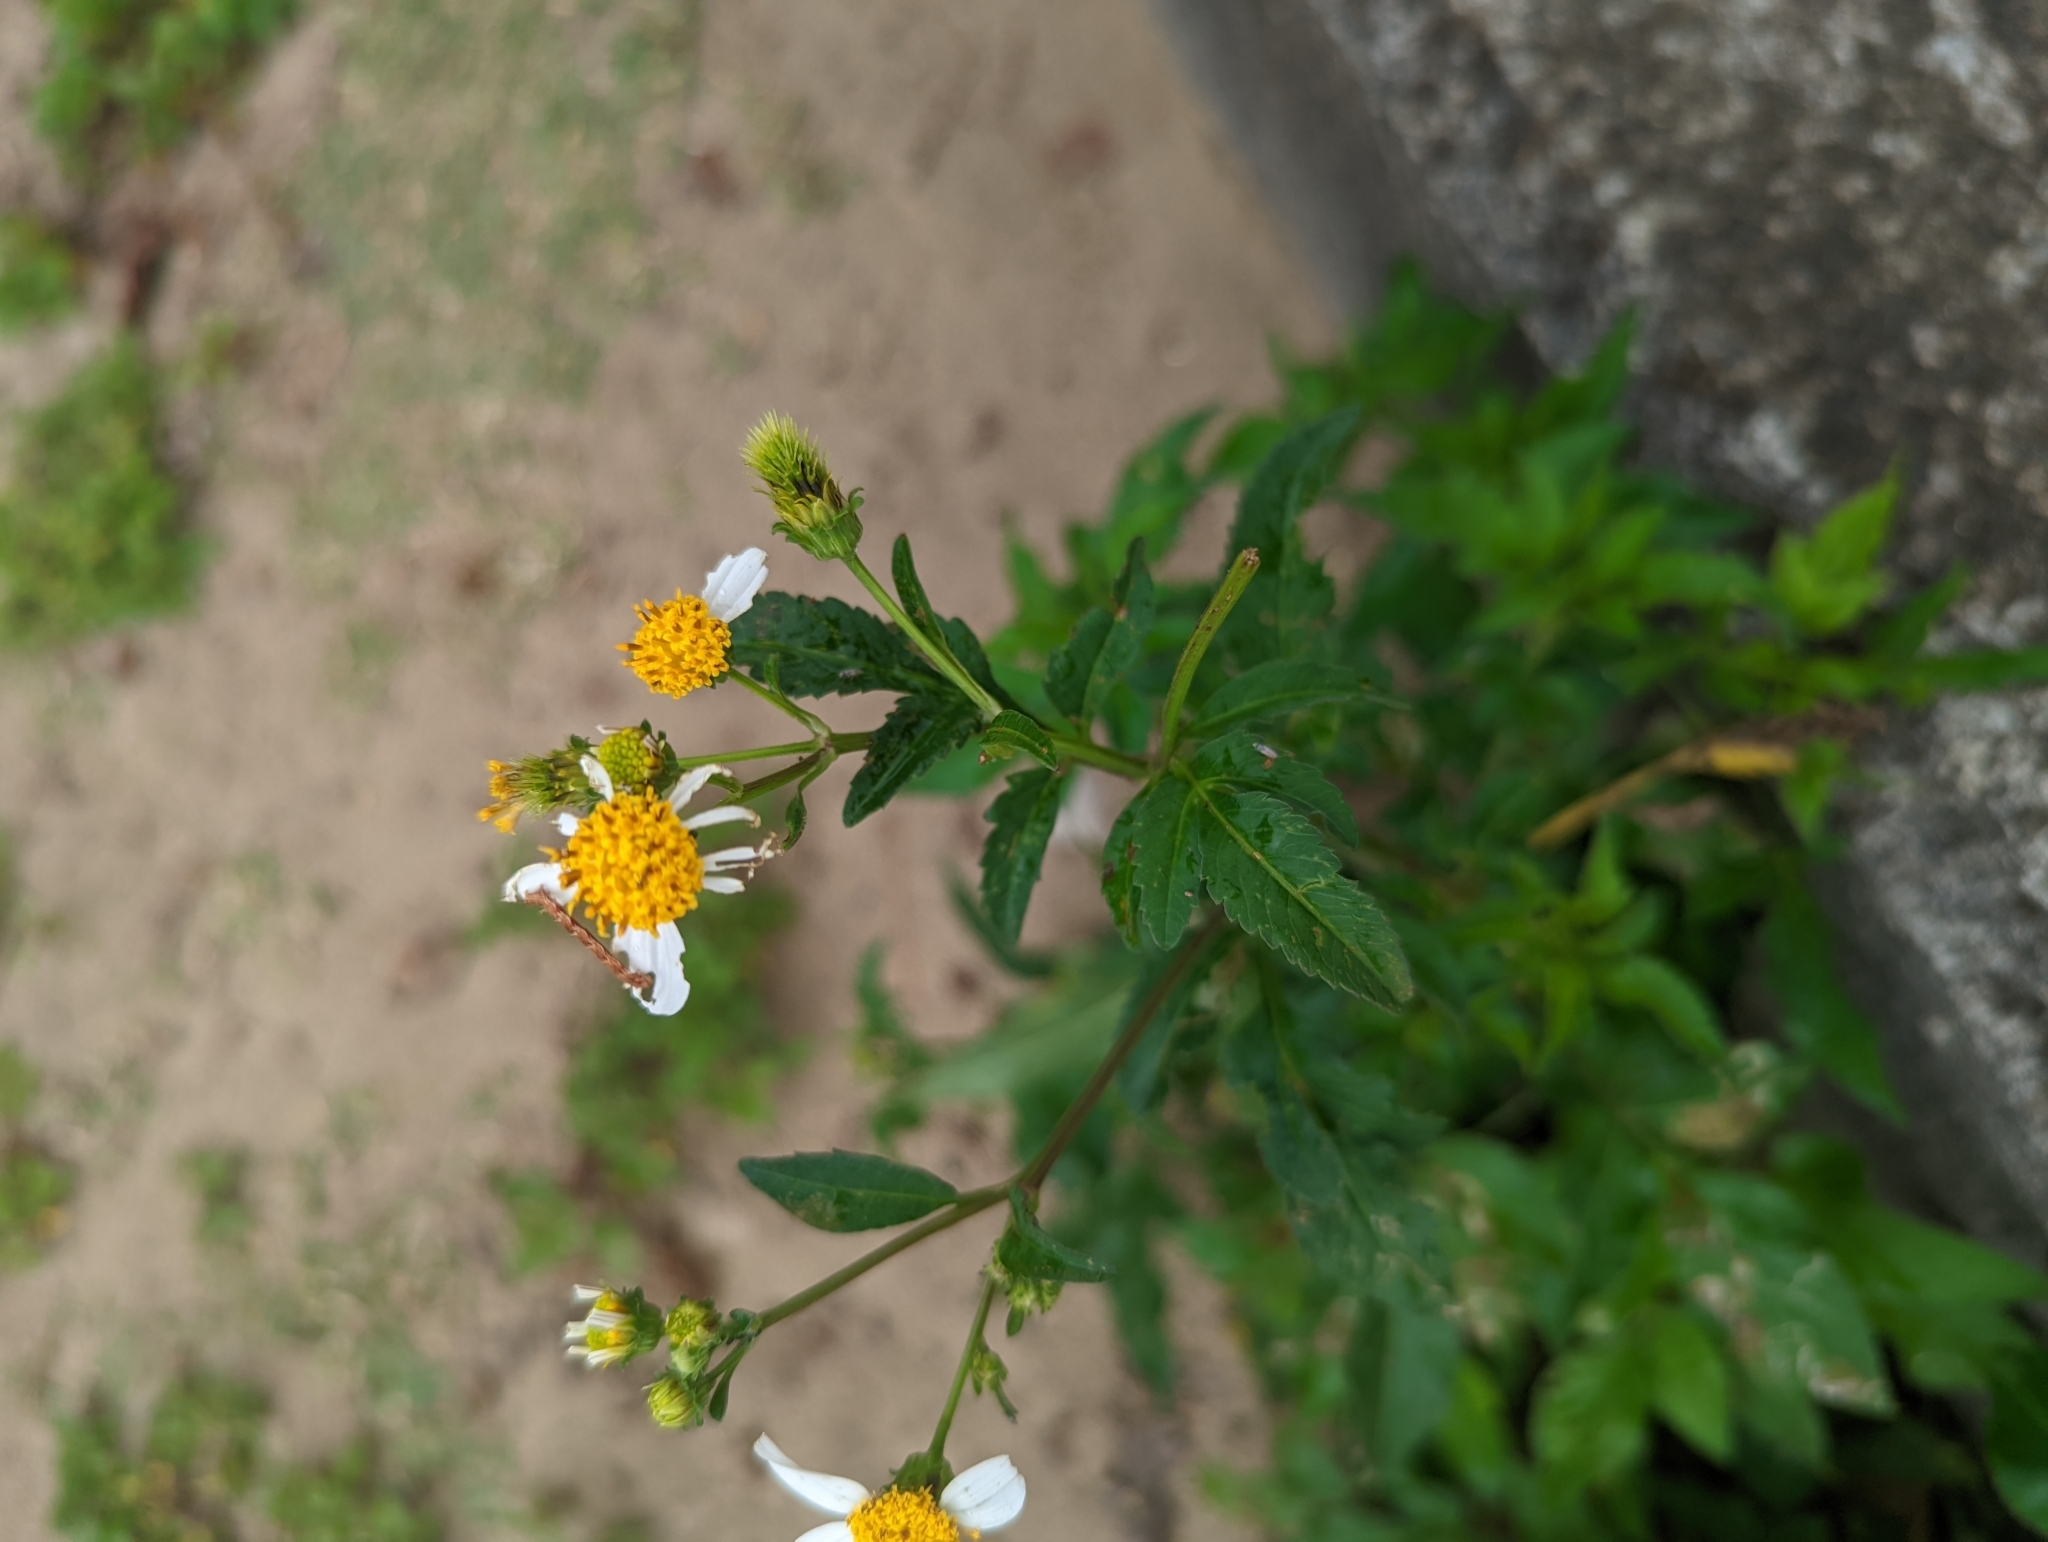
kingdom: Plantae
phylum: Tracheophyta
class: Magnoliopsida
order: Asterales
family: Asteraceae
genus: Bidens
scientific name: Bidens alba
